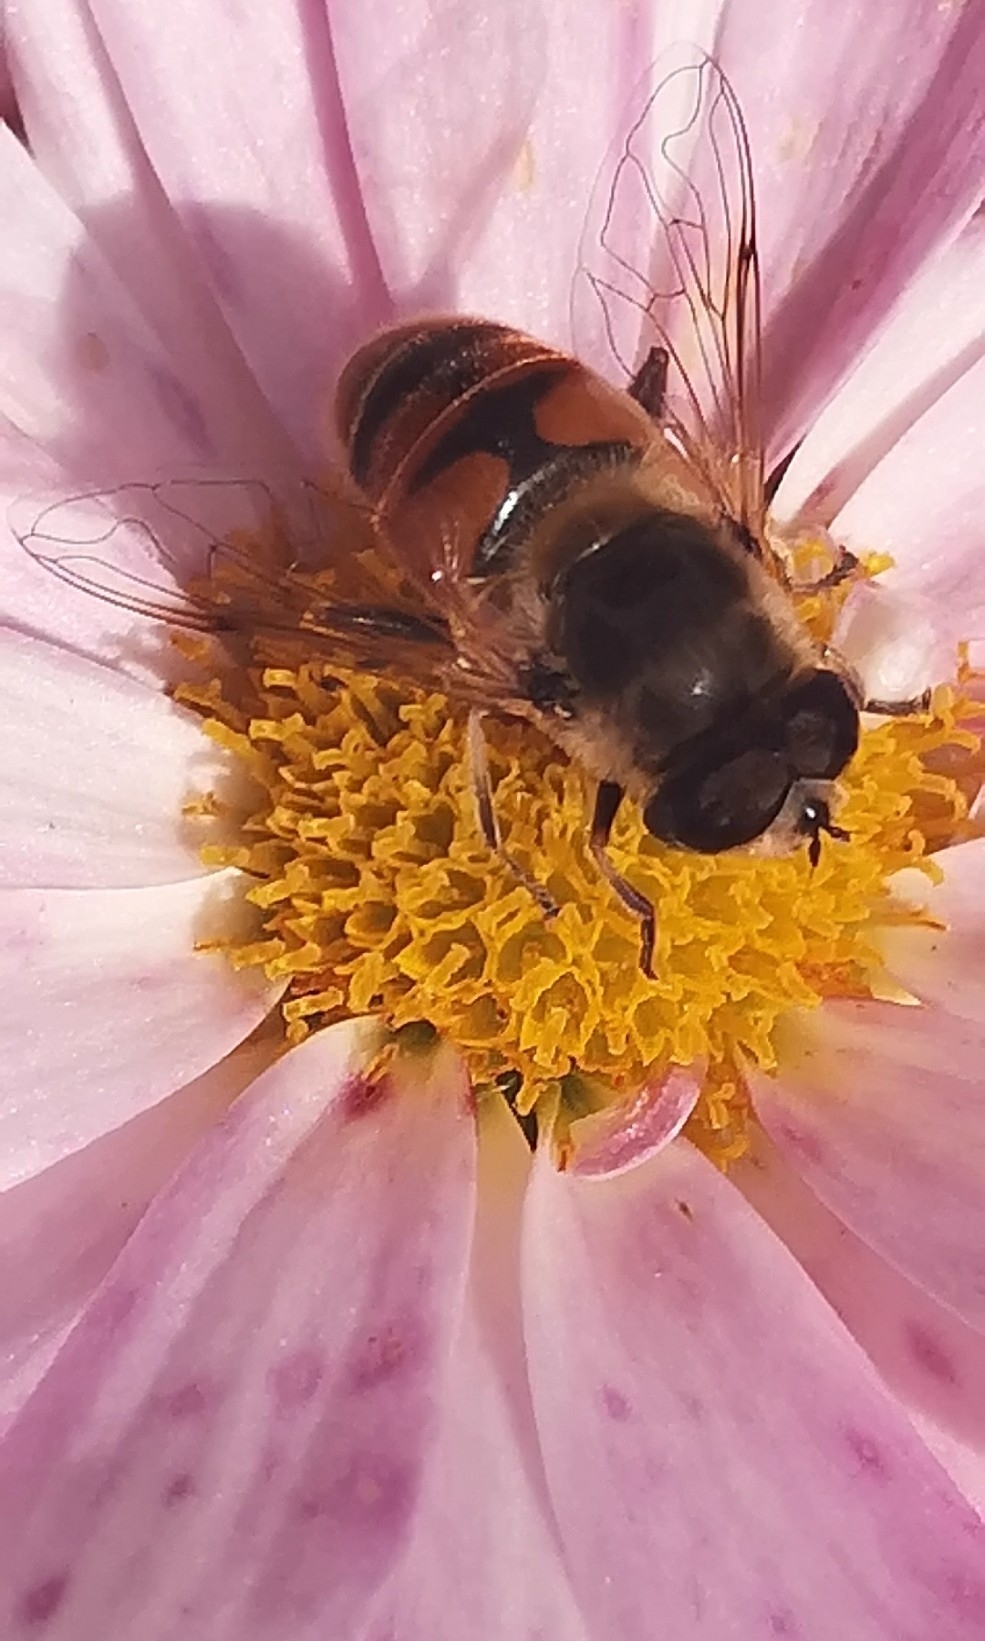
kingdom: Animalia
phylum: Arthropoda
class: Insecta
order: Diptera
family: Syrphidae
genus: Eristalis
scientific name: Eristalis tenax
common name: Drone fly
